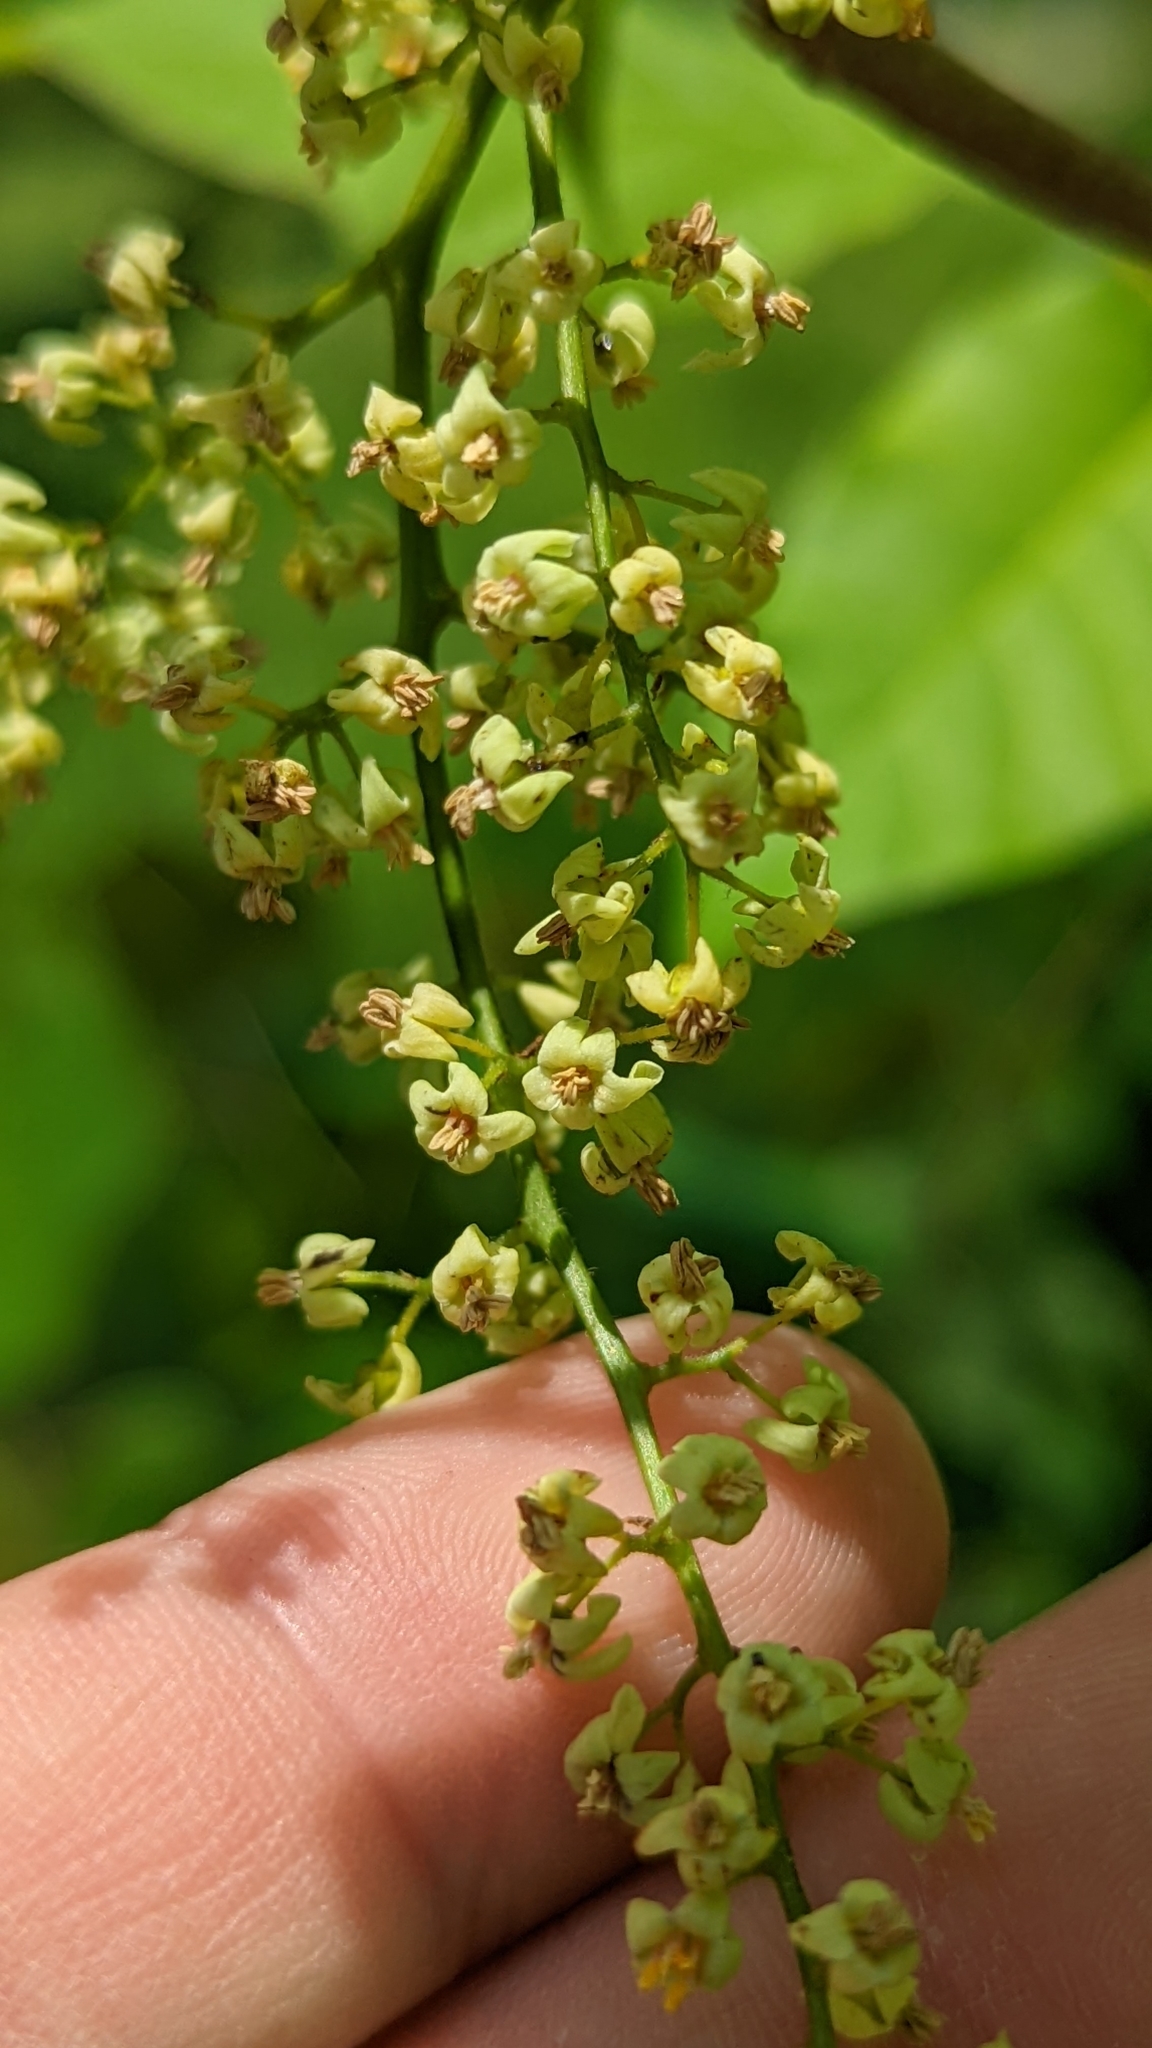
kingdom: Plantae
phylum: Tracheophyta
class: Magnoliopsida
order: Sapindales
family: Anacardiaceae
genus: Toxicodendron
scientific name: Toxicodendron radicans
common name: Poison ivy
